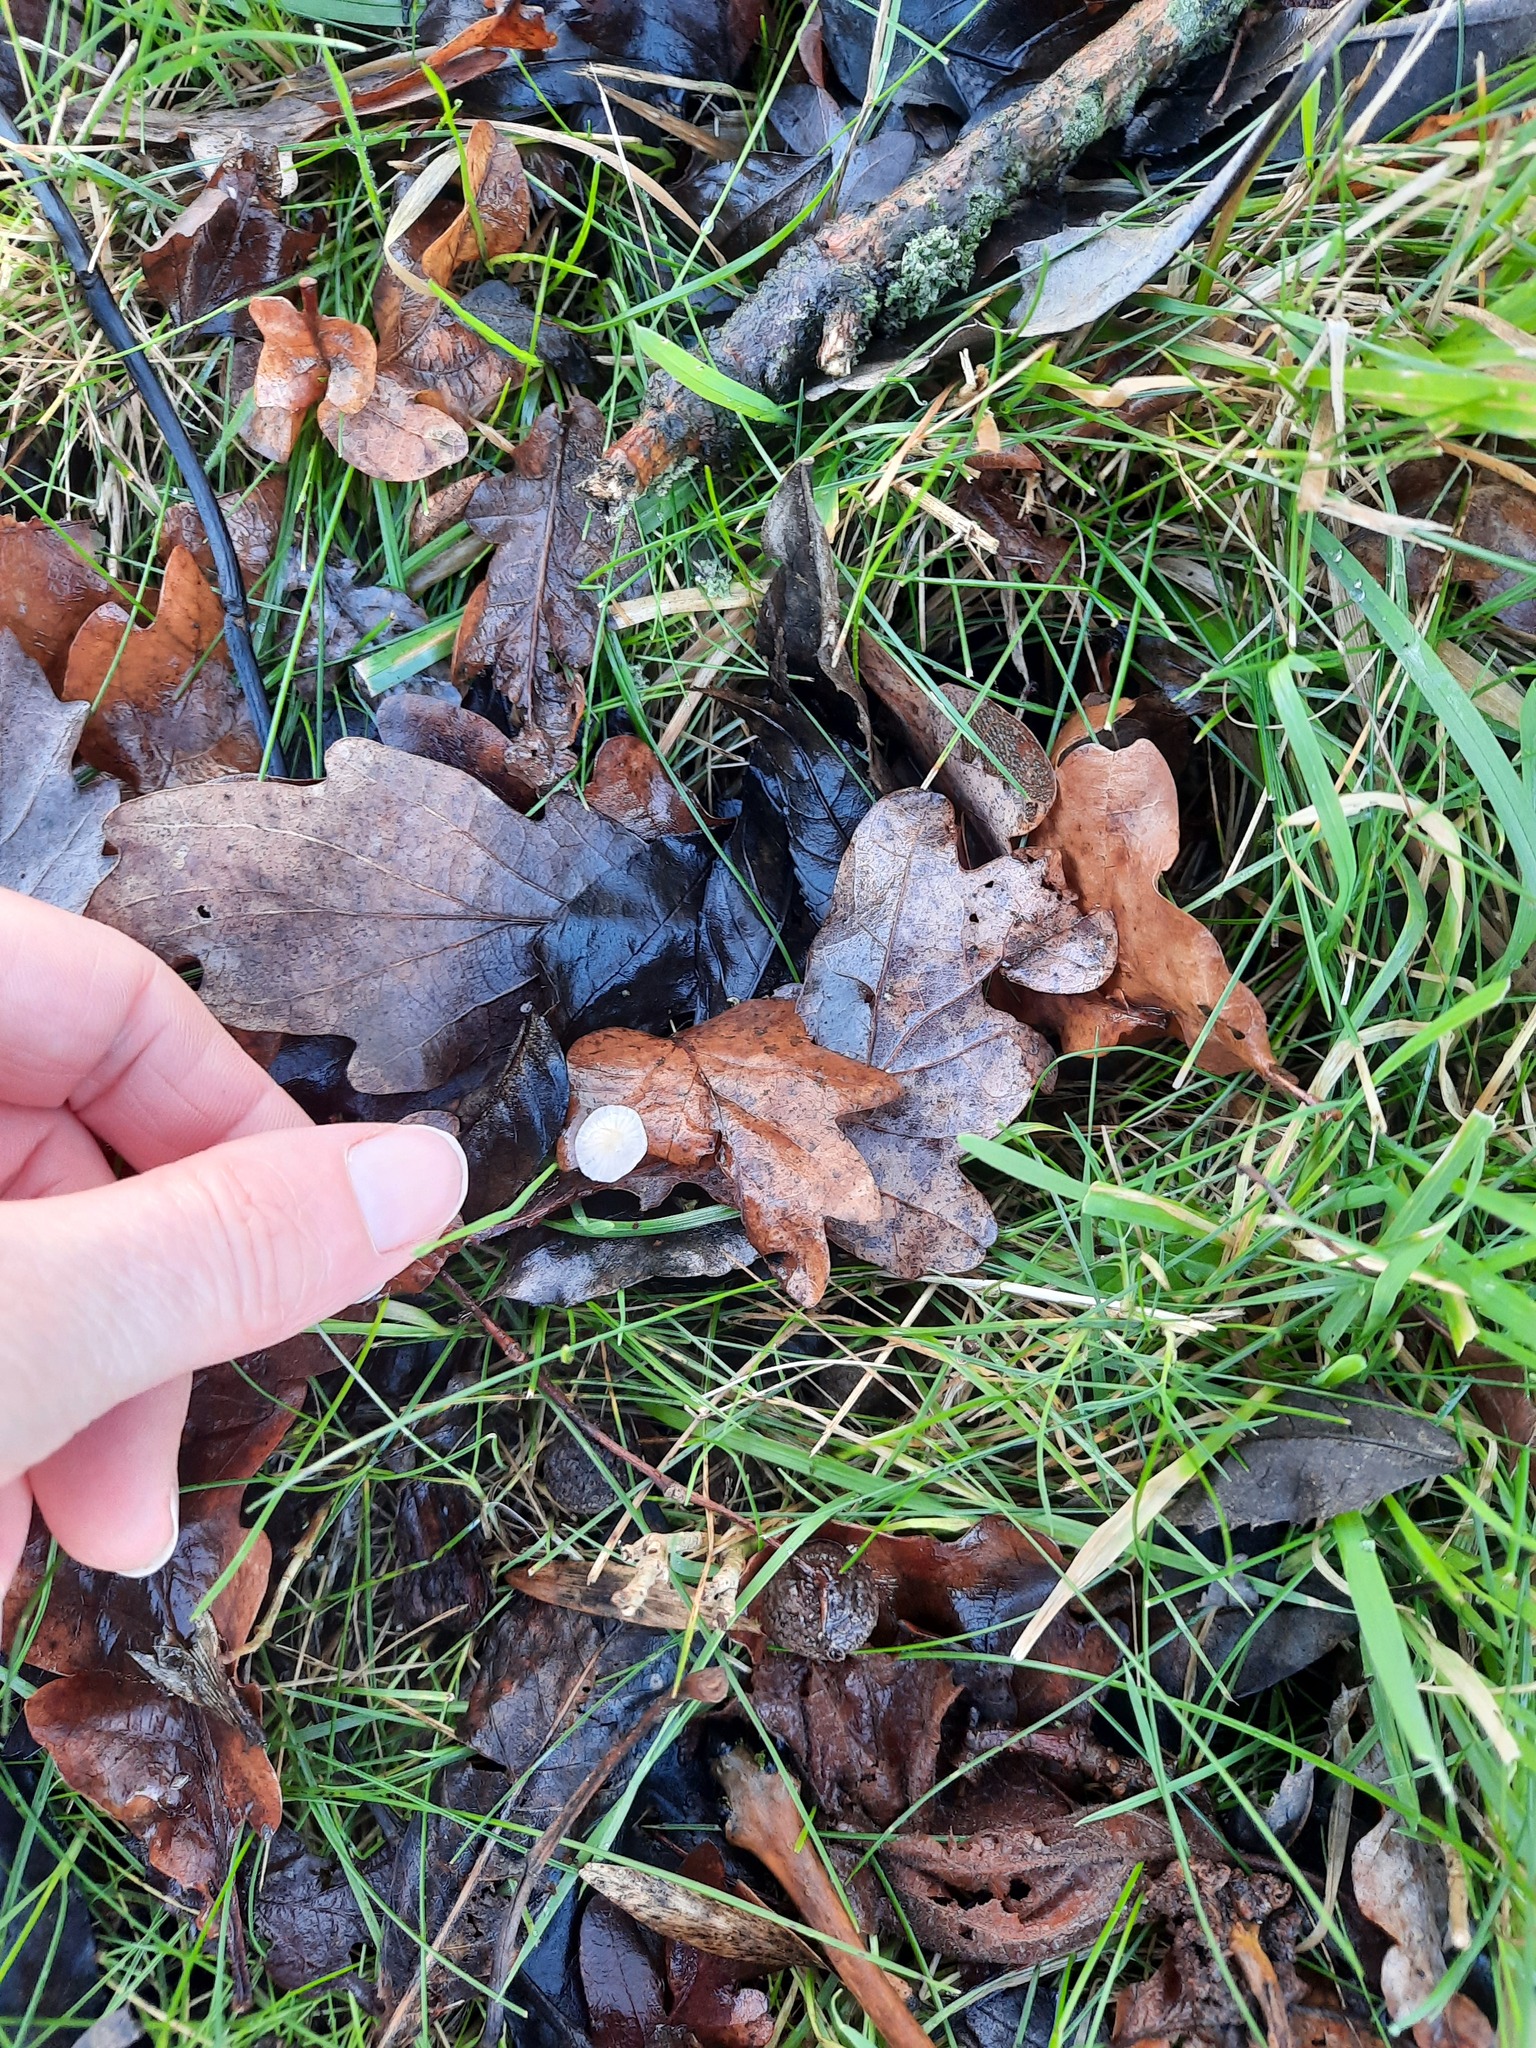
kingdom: Fungi
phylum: Basidiomycota
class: Agaricomycetes
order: Agaricales
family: Mycenaceae
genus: Atheniella
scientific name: Atheniella flavoalba
